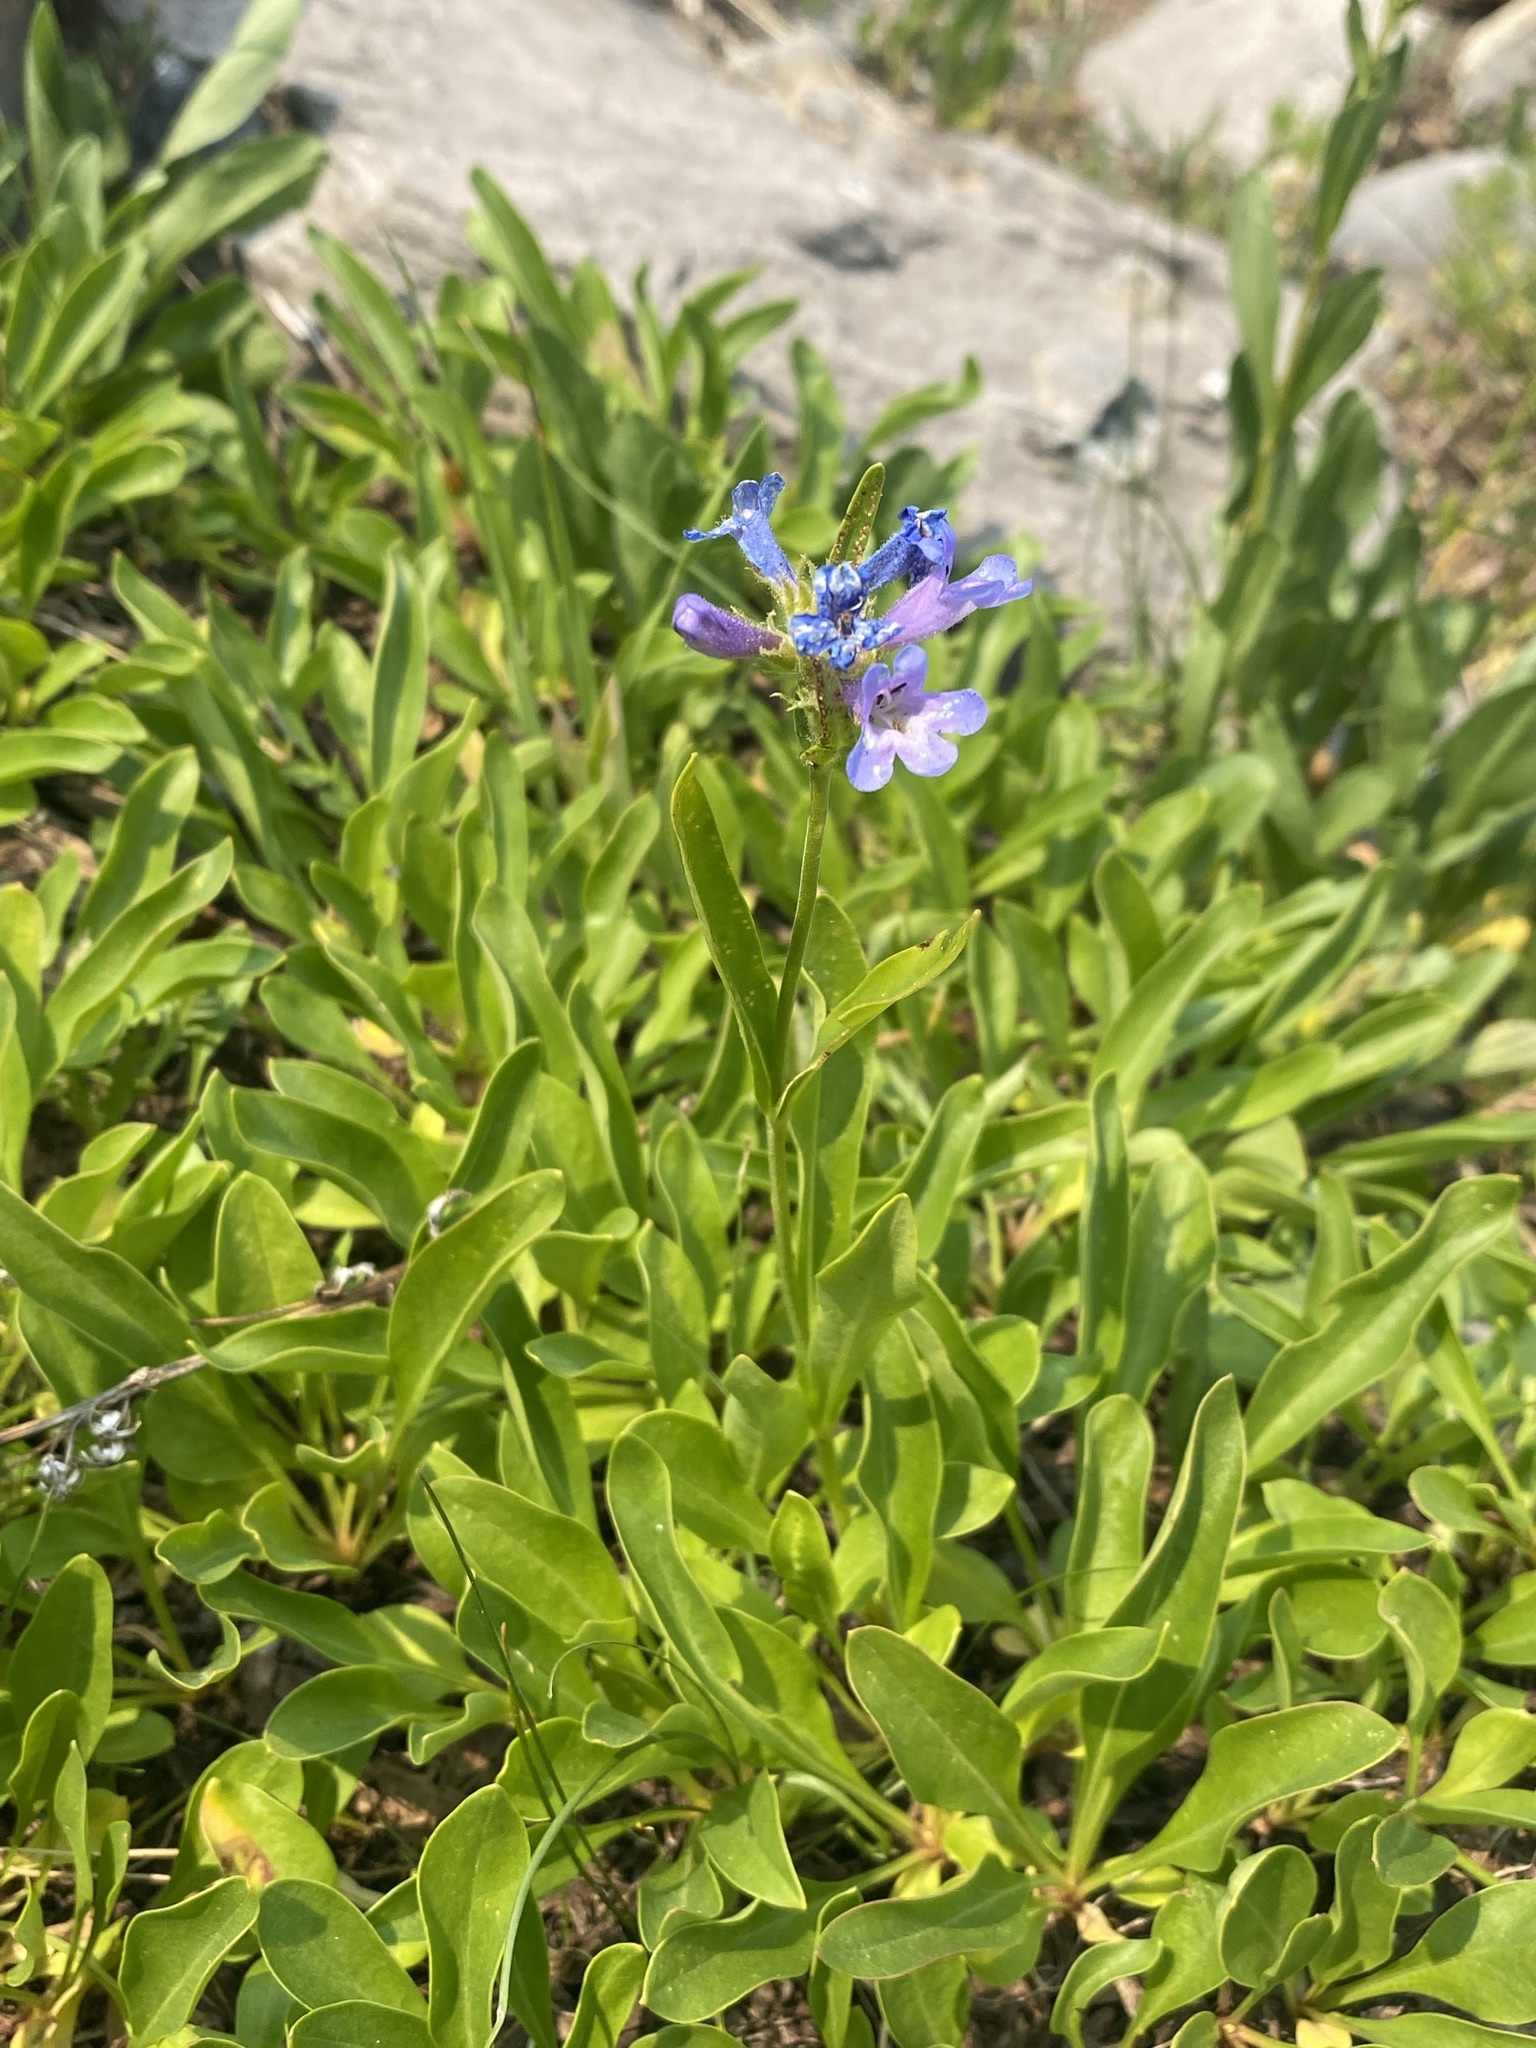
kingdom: Plantae
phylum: Tracheophyta
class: Magnoliopsida
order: Lamiales
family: Plantaginaceae
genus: Penstemon
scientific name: Penstemon attenuatus
